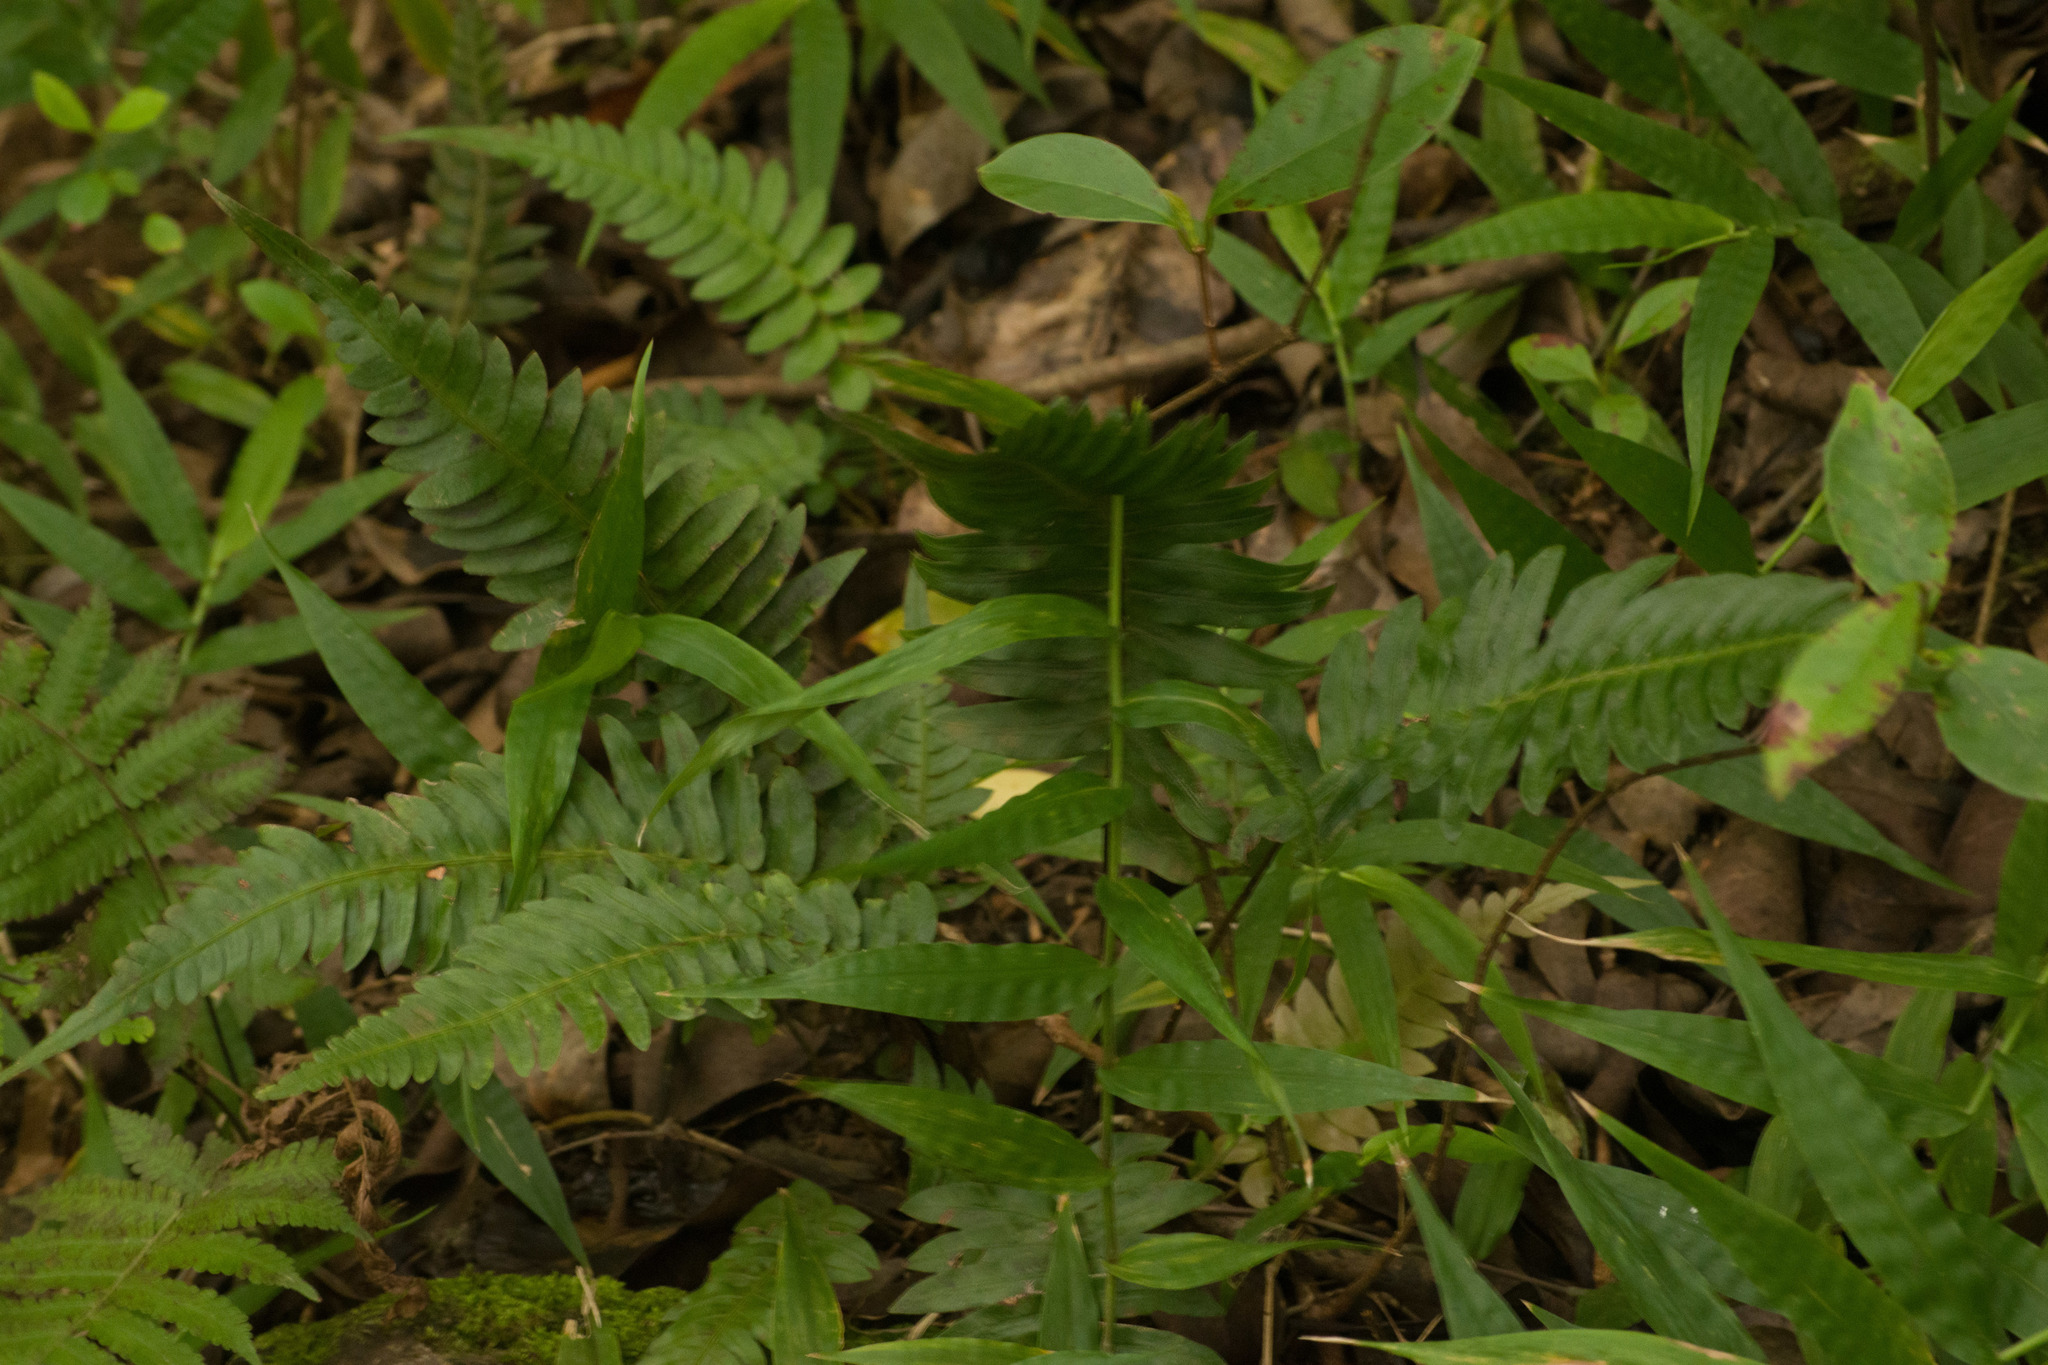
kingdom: Plantae
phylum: Tracheophyta
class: Polypodiopsida
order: Polypodiales
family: Blechnaceae
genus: Blechnum
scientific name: Blechnum appendiculatum
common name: Palm fern
